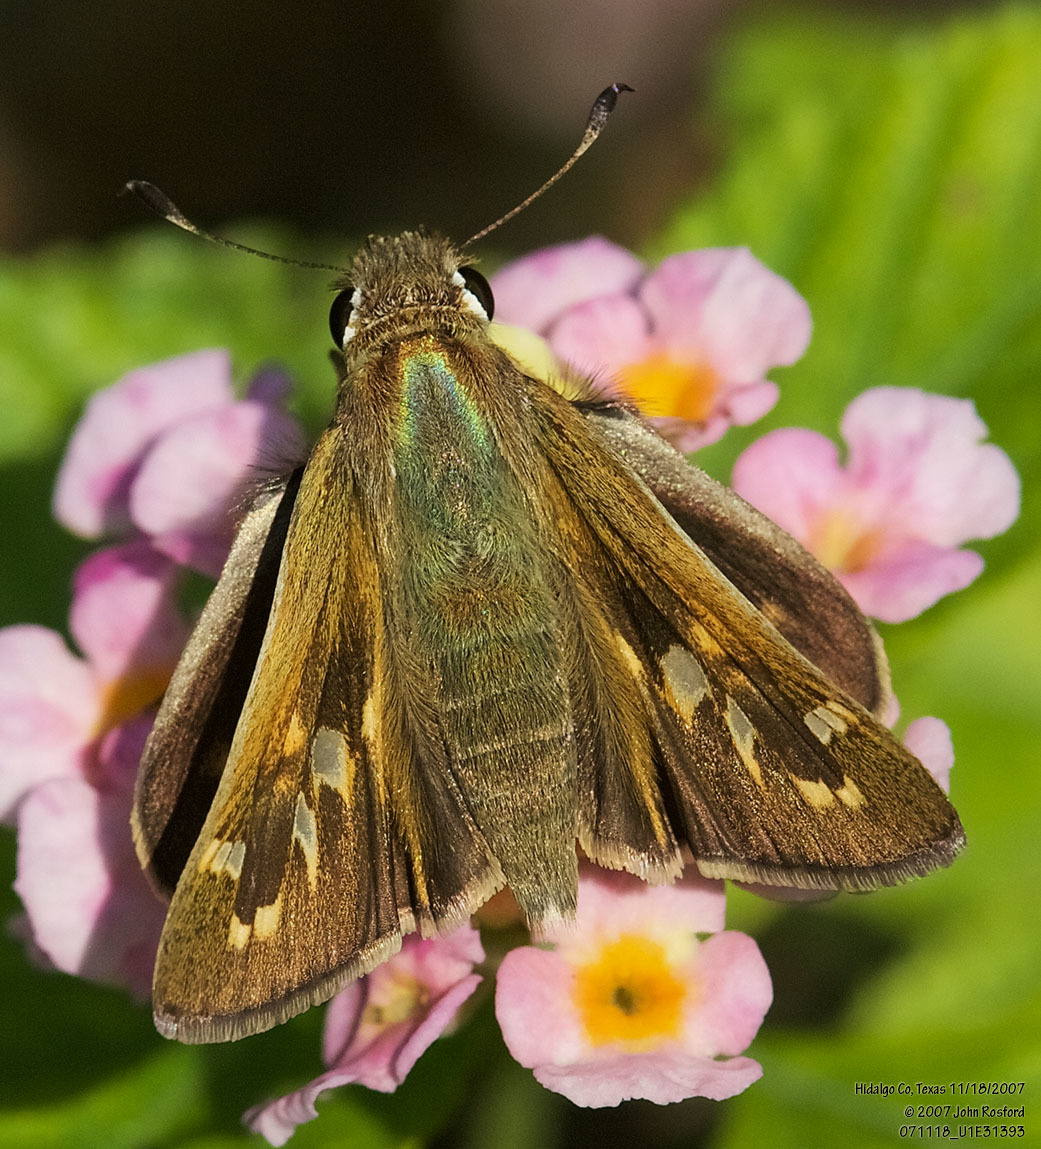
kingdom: Animalia
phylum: Arthropoda
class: Insecta
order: Lepidoptera
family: Hesperiidae
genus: Atalopedes
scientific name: Atalopedes
